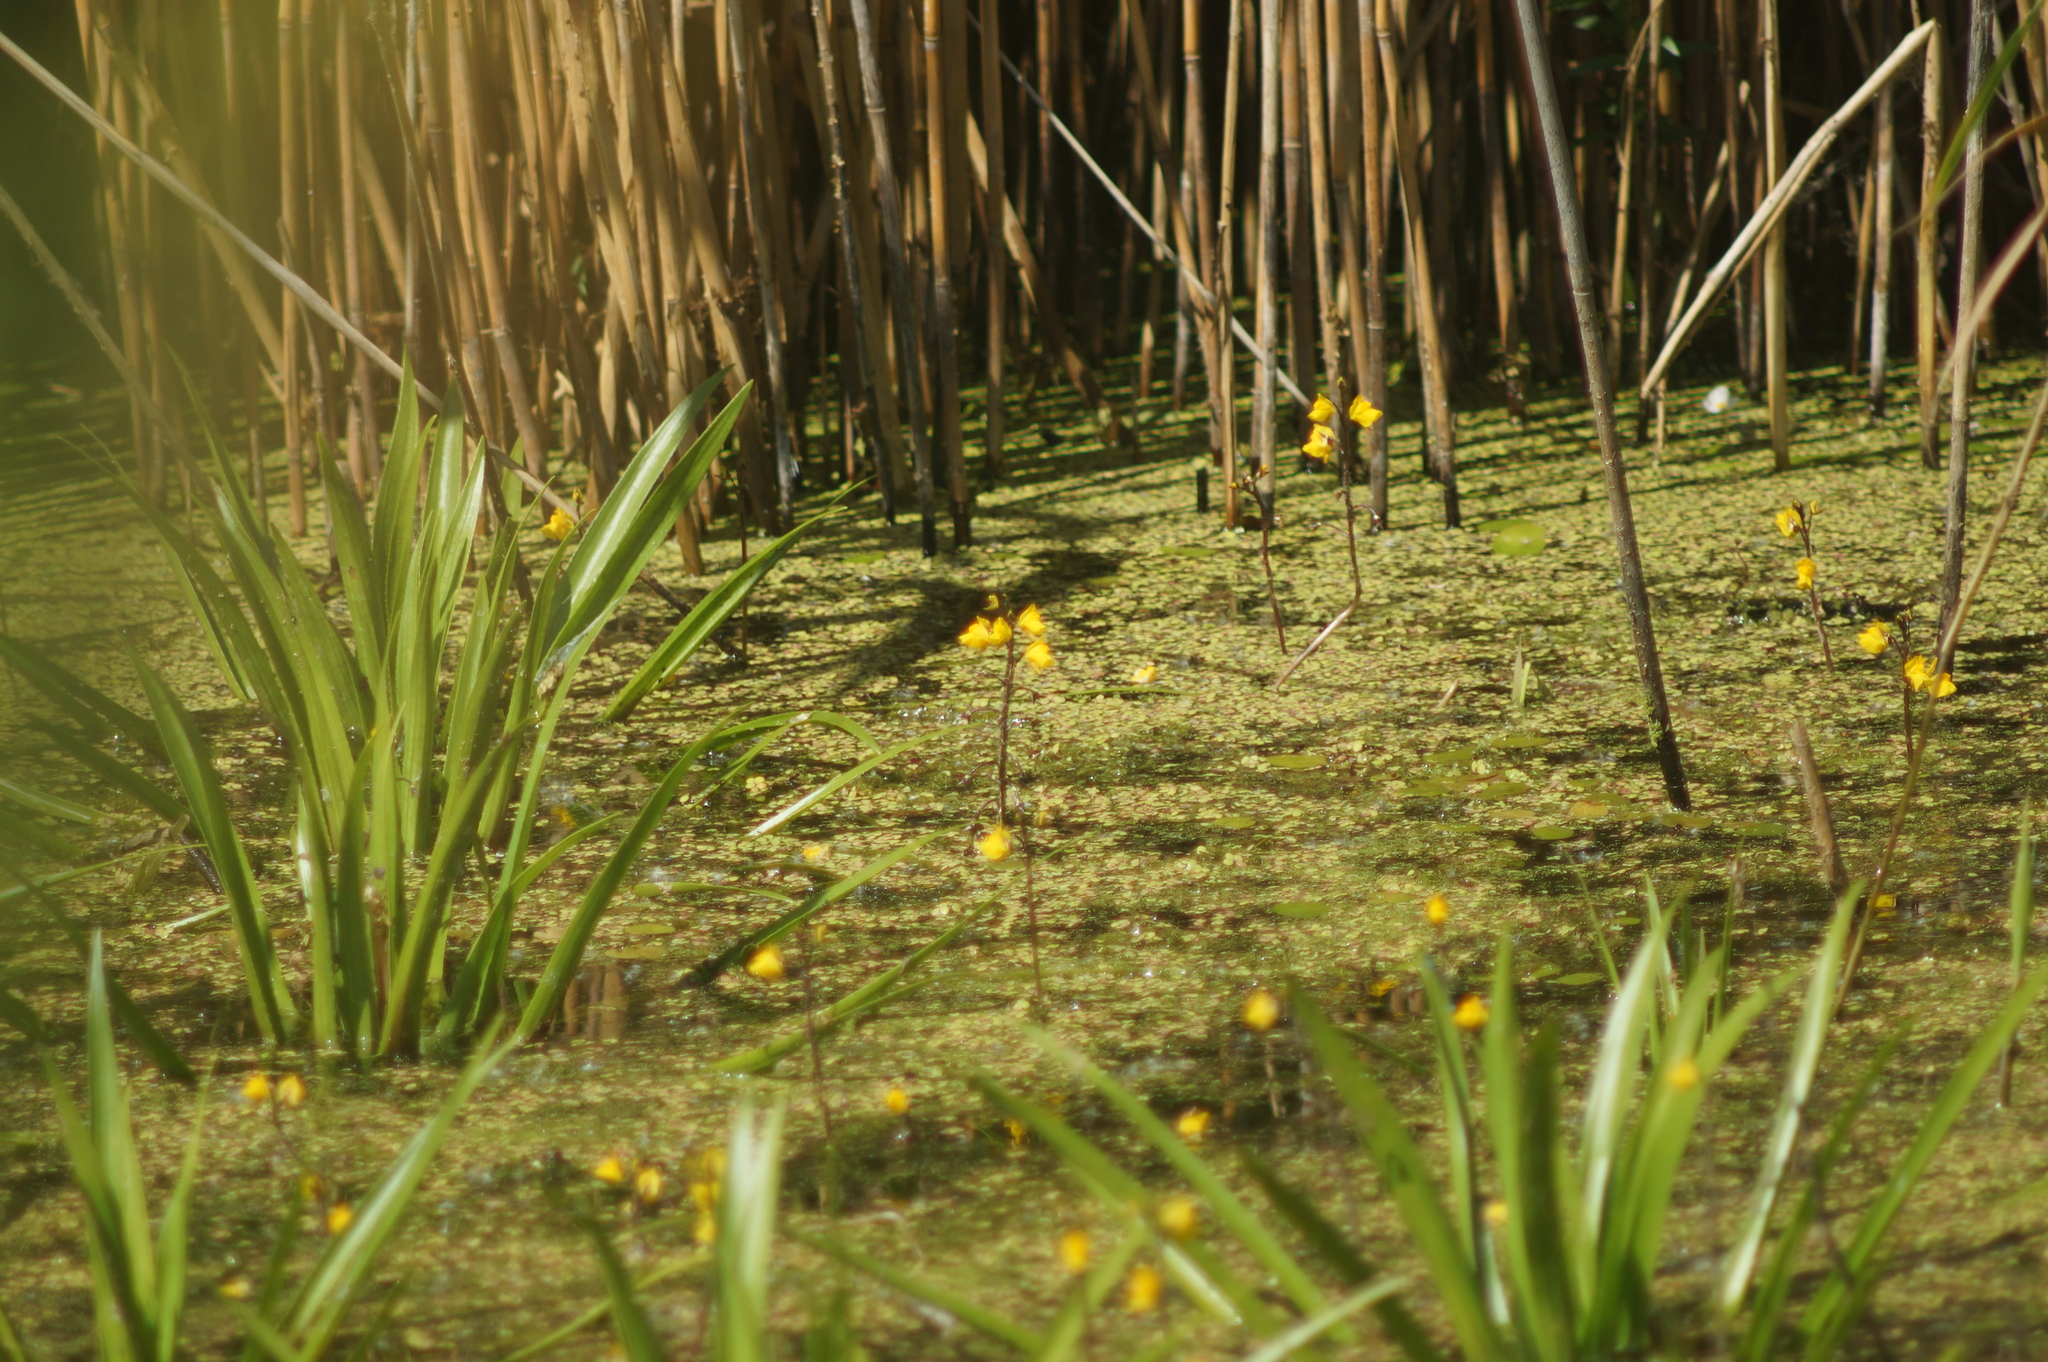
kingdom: Plantae
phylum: Tracheophyta
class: Magnoliopsida
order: Lamiales
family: Lentibulariaceae
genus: Utricularia
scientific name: Utricularia vulgaris
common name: Greater bladderwort
